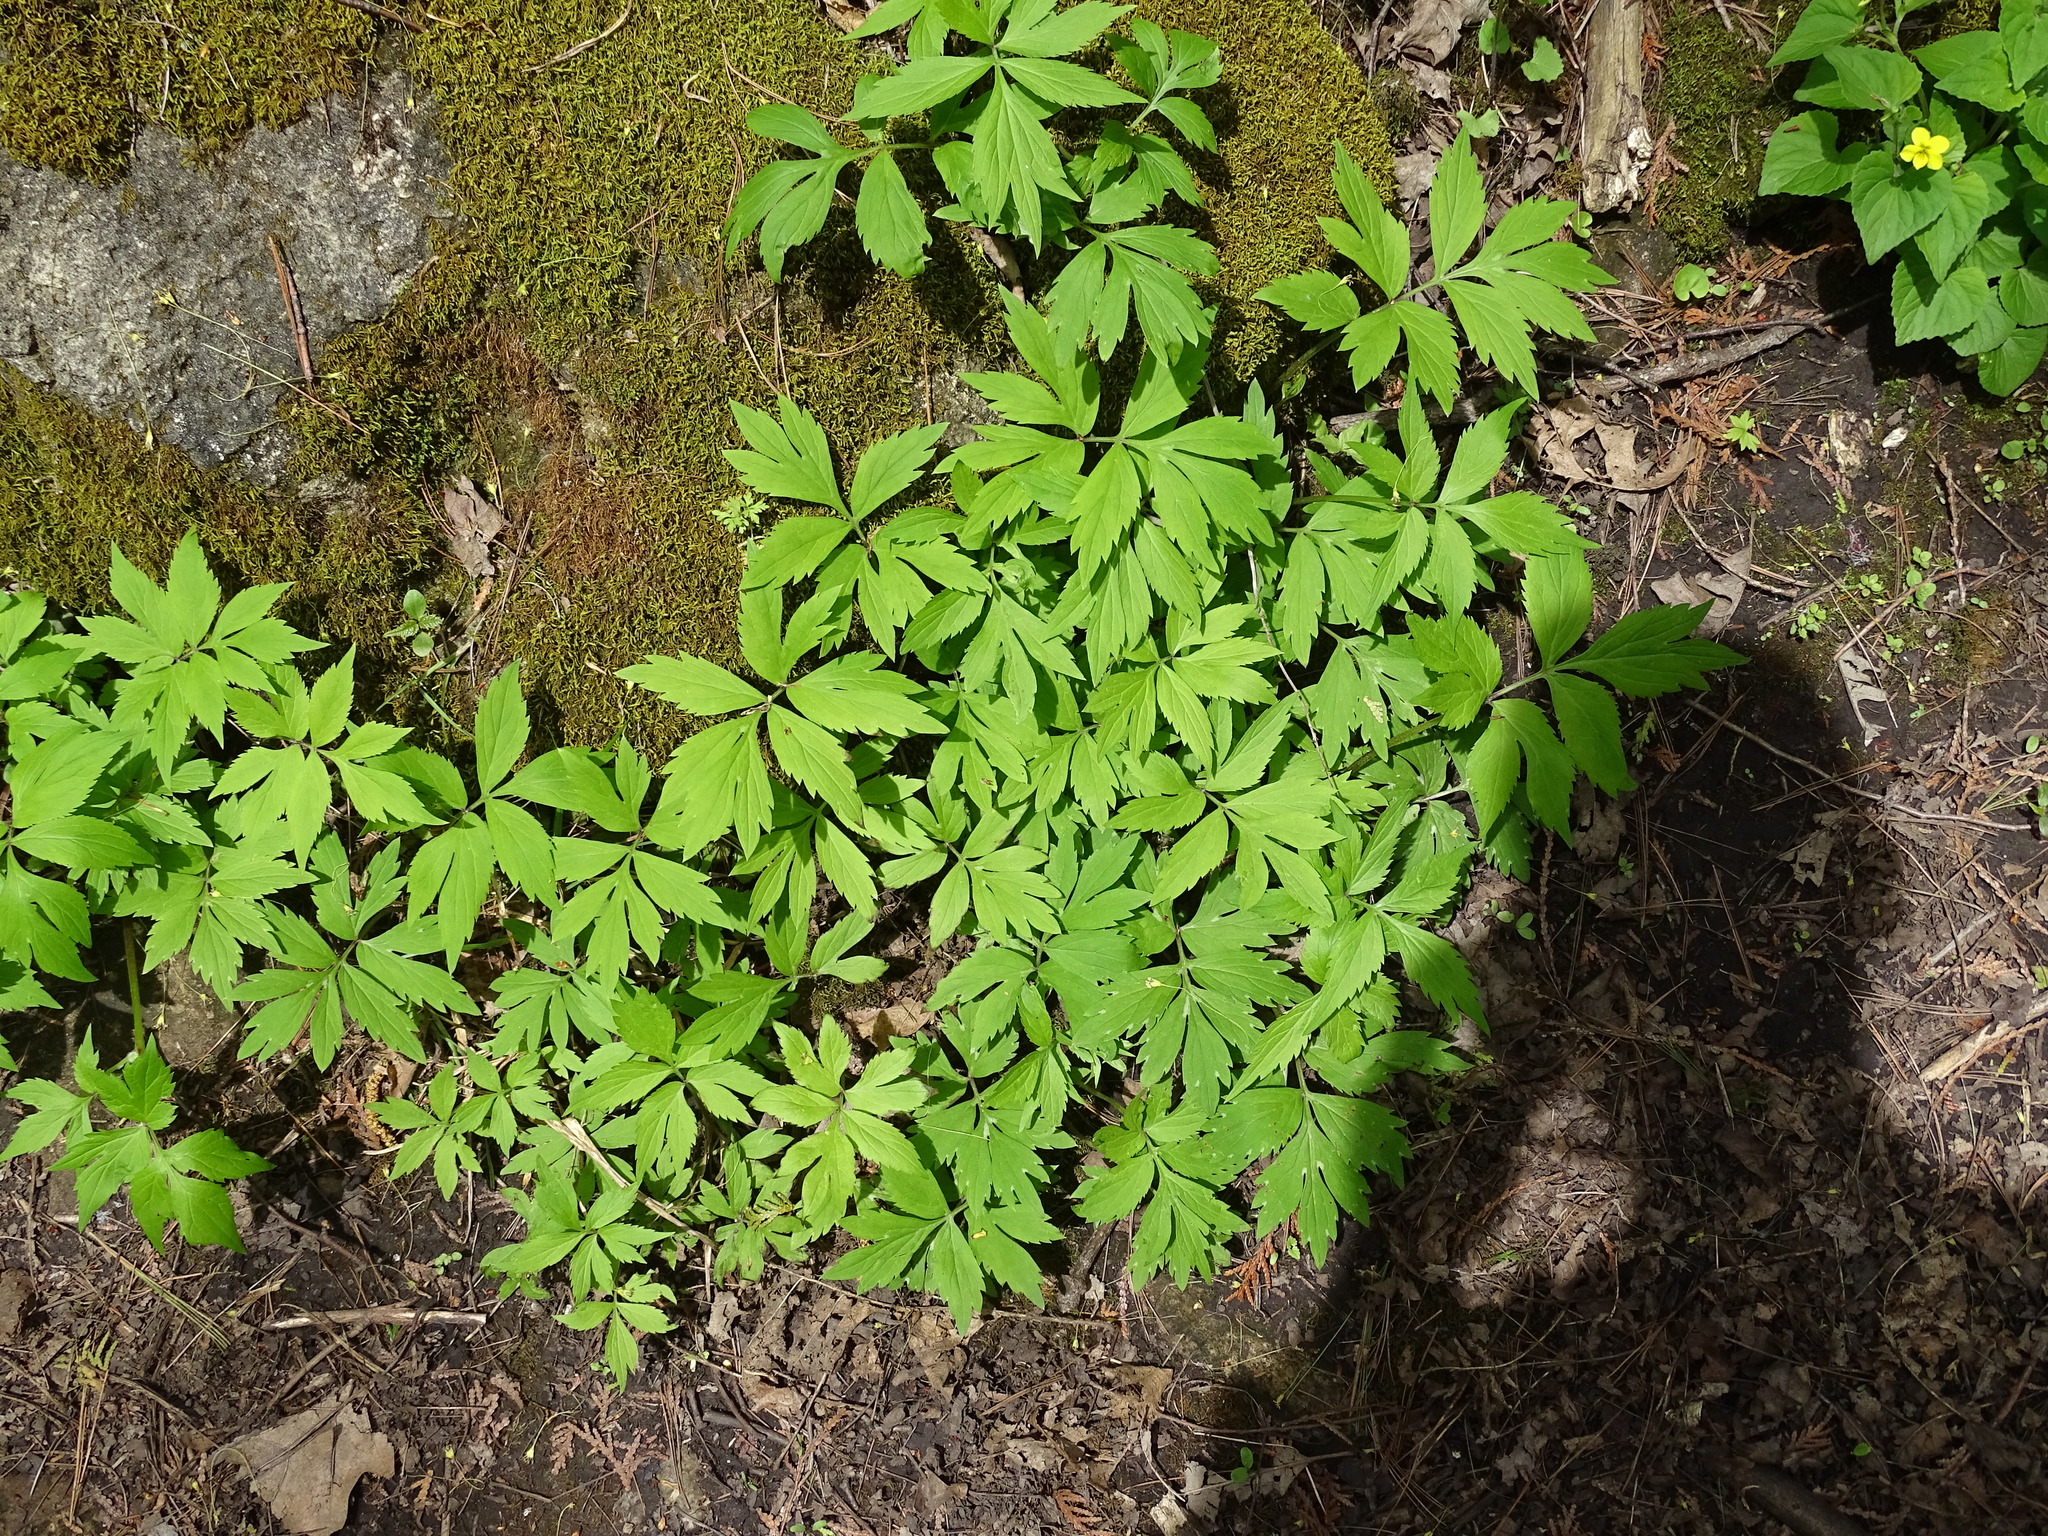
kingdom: Plantae
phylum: Tracheophyta
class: Magnoliopsida
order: Boraginales
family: Hydrophyllaceae
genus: Hydrophyllum
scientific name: Hydrophyllum virginianum
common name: Virginia waterleaf
